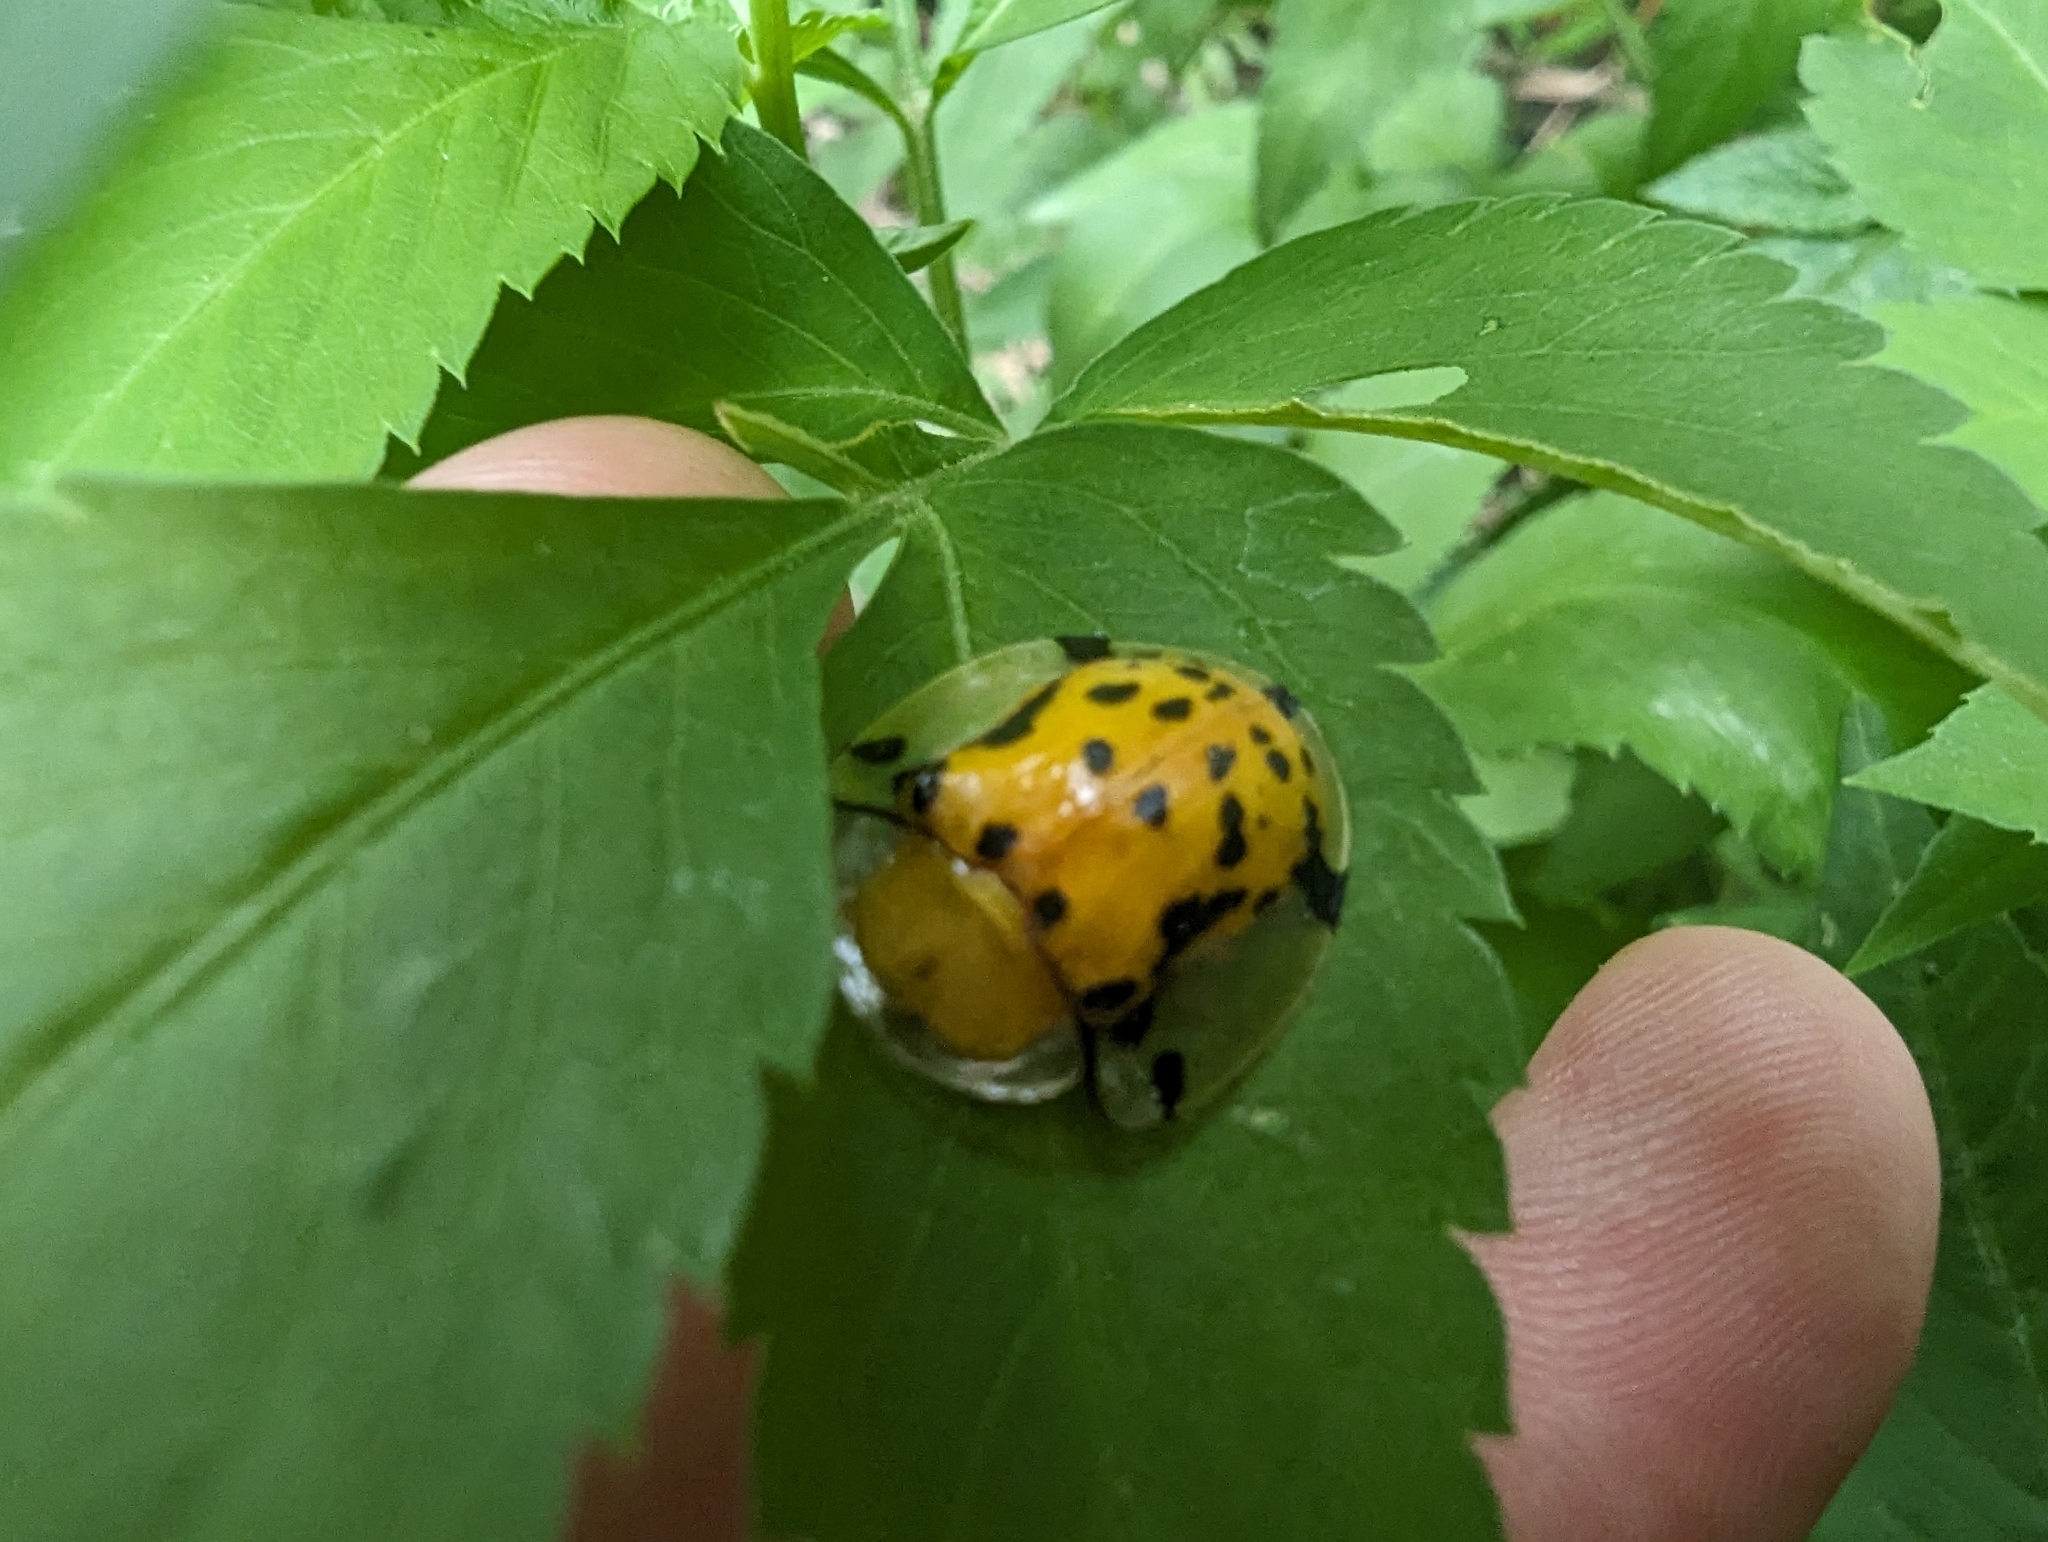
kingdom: Animalia
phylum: Arthropoda
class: Insecta
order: Coleoptera
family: Chrysomelidae
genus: Aspidimorpha
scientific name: Aspidimorpha miliaris
